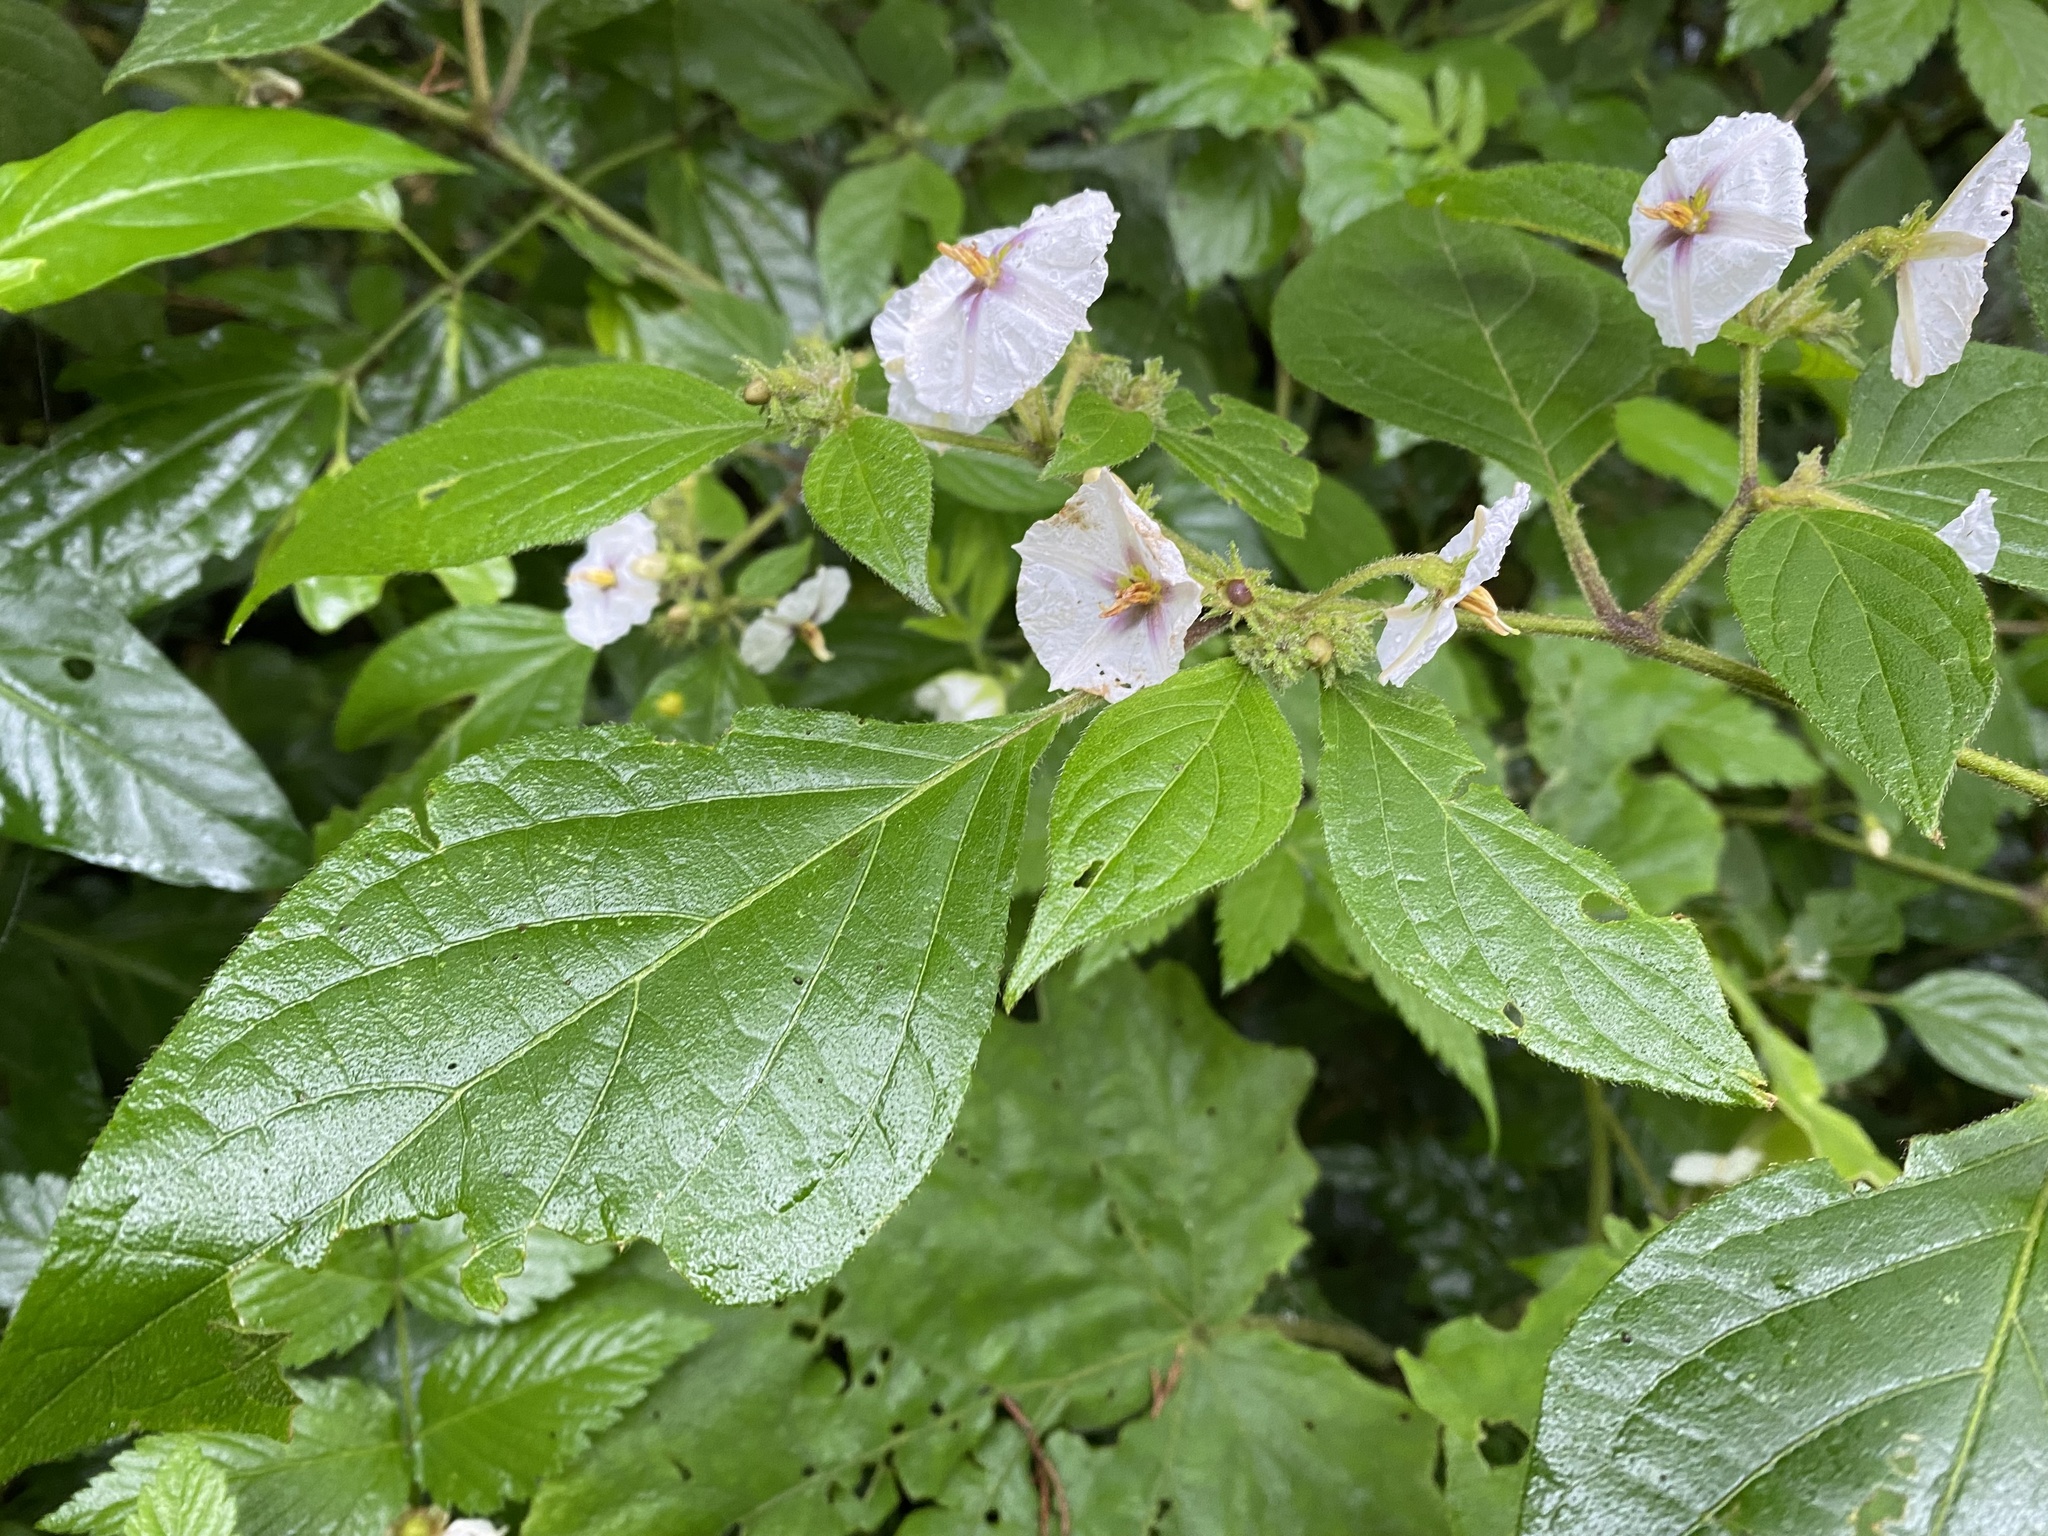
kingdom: Plantae
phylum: Tracheophyta
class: Magnoliopsida
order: Solanales
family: Solanaceae
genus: Lycianthes
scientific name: Lycianthes tricolor
